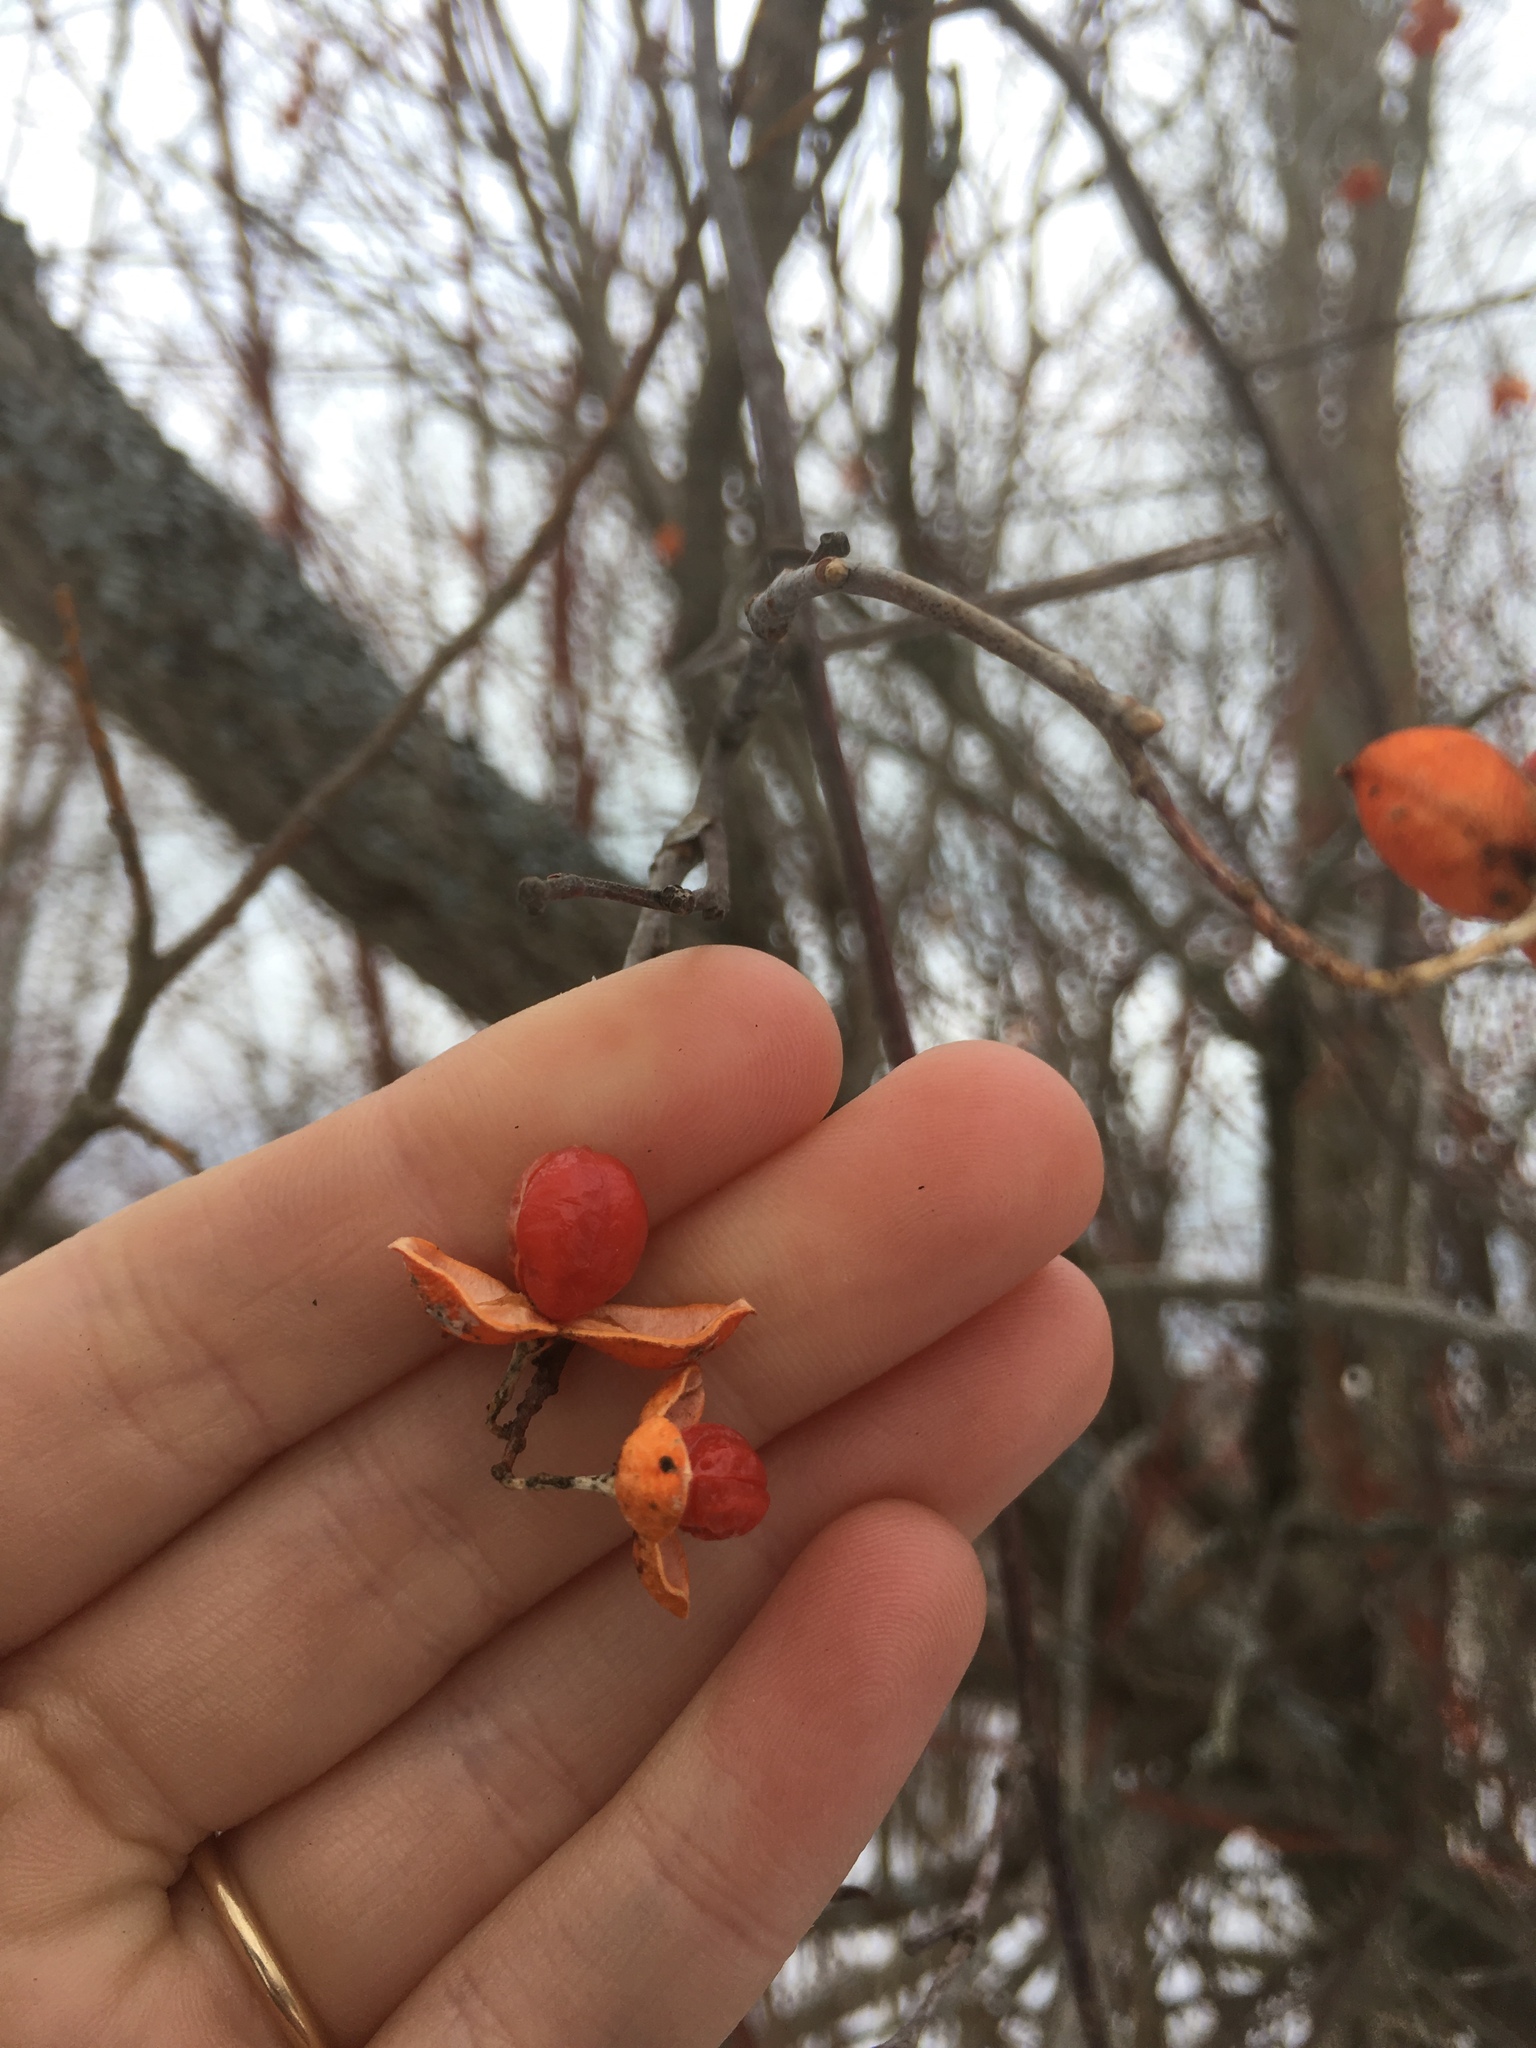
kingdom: Plantae
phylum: Tracheophyta
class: Magnoliopsida
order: Celastrales
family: Celastraceae
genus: Celastrus
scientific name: Celastrus scandens
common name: American bittersweet
